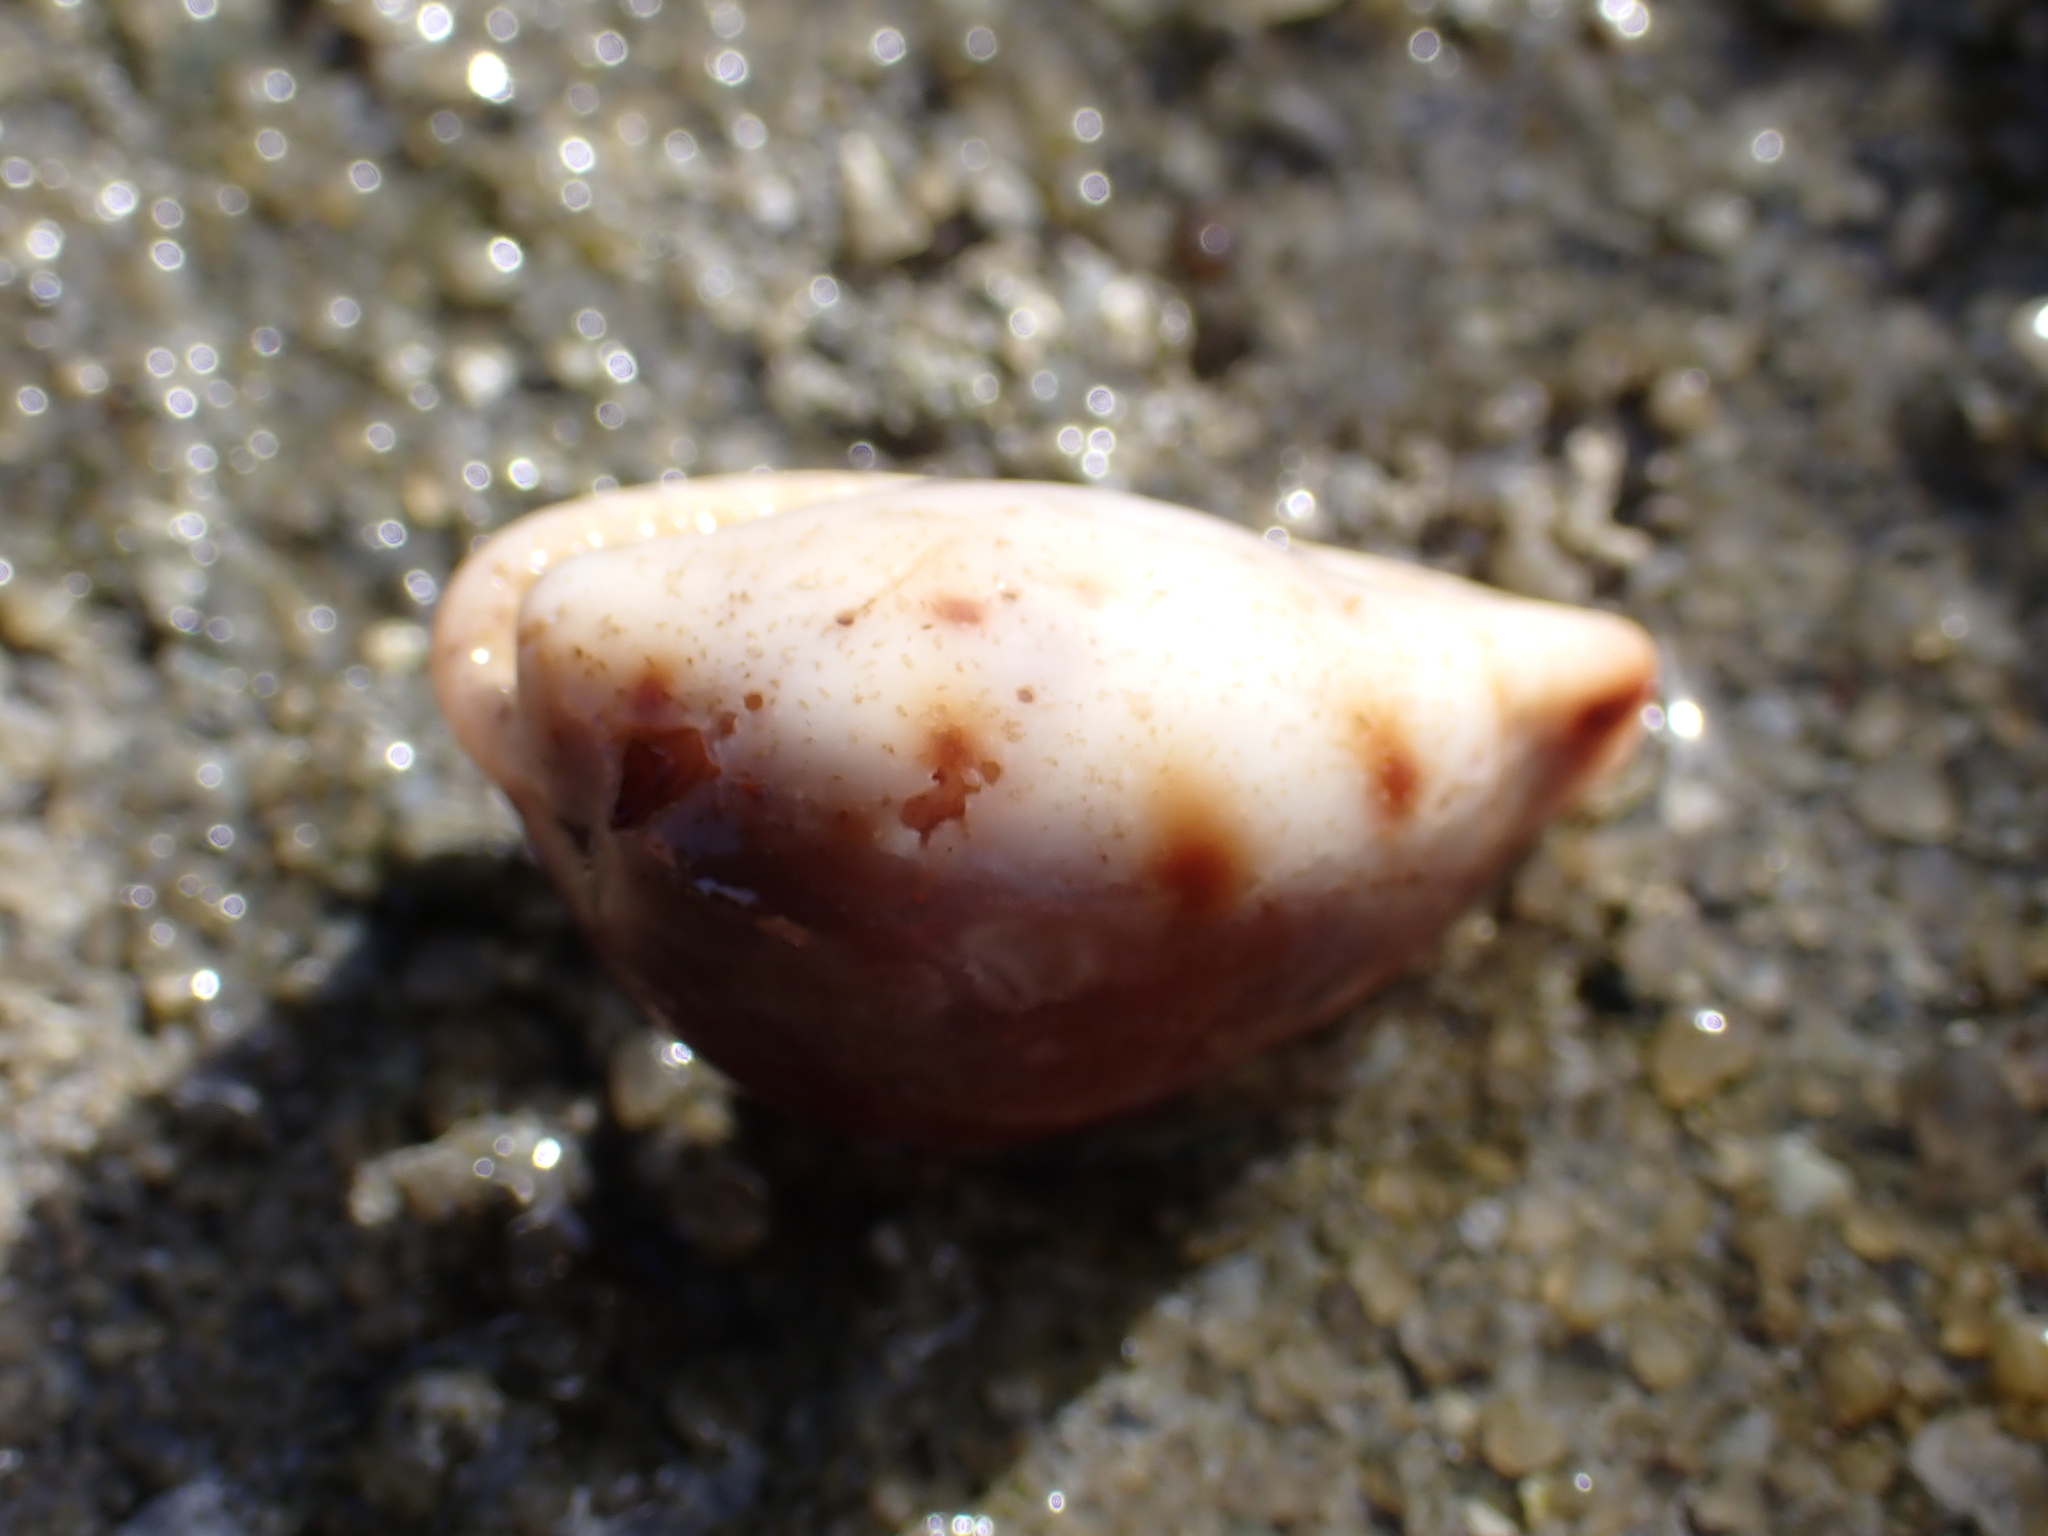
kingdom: Animalia
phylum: Mollusca
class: Gastropoda
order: Littorinimorpha
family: Cypraeidae
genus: Erronea
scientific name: Erronea xanthodon
